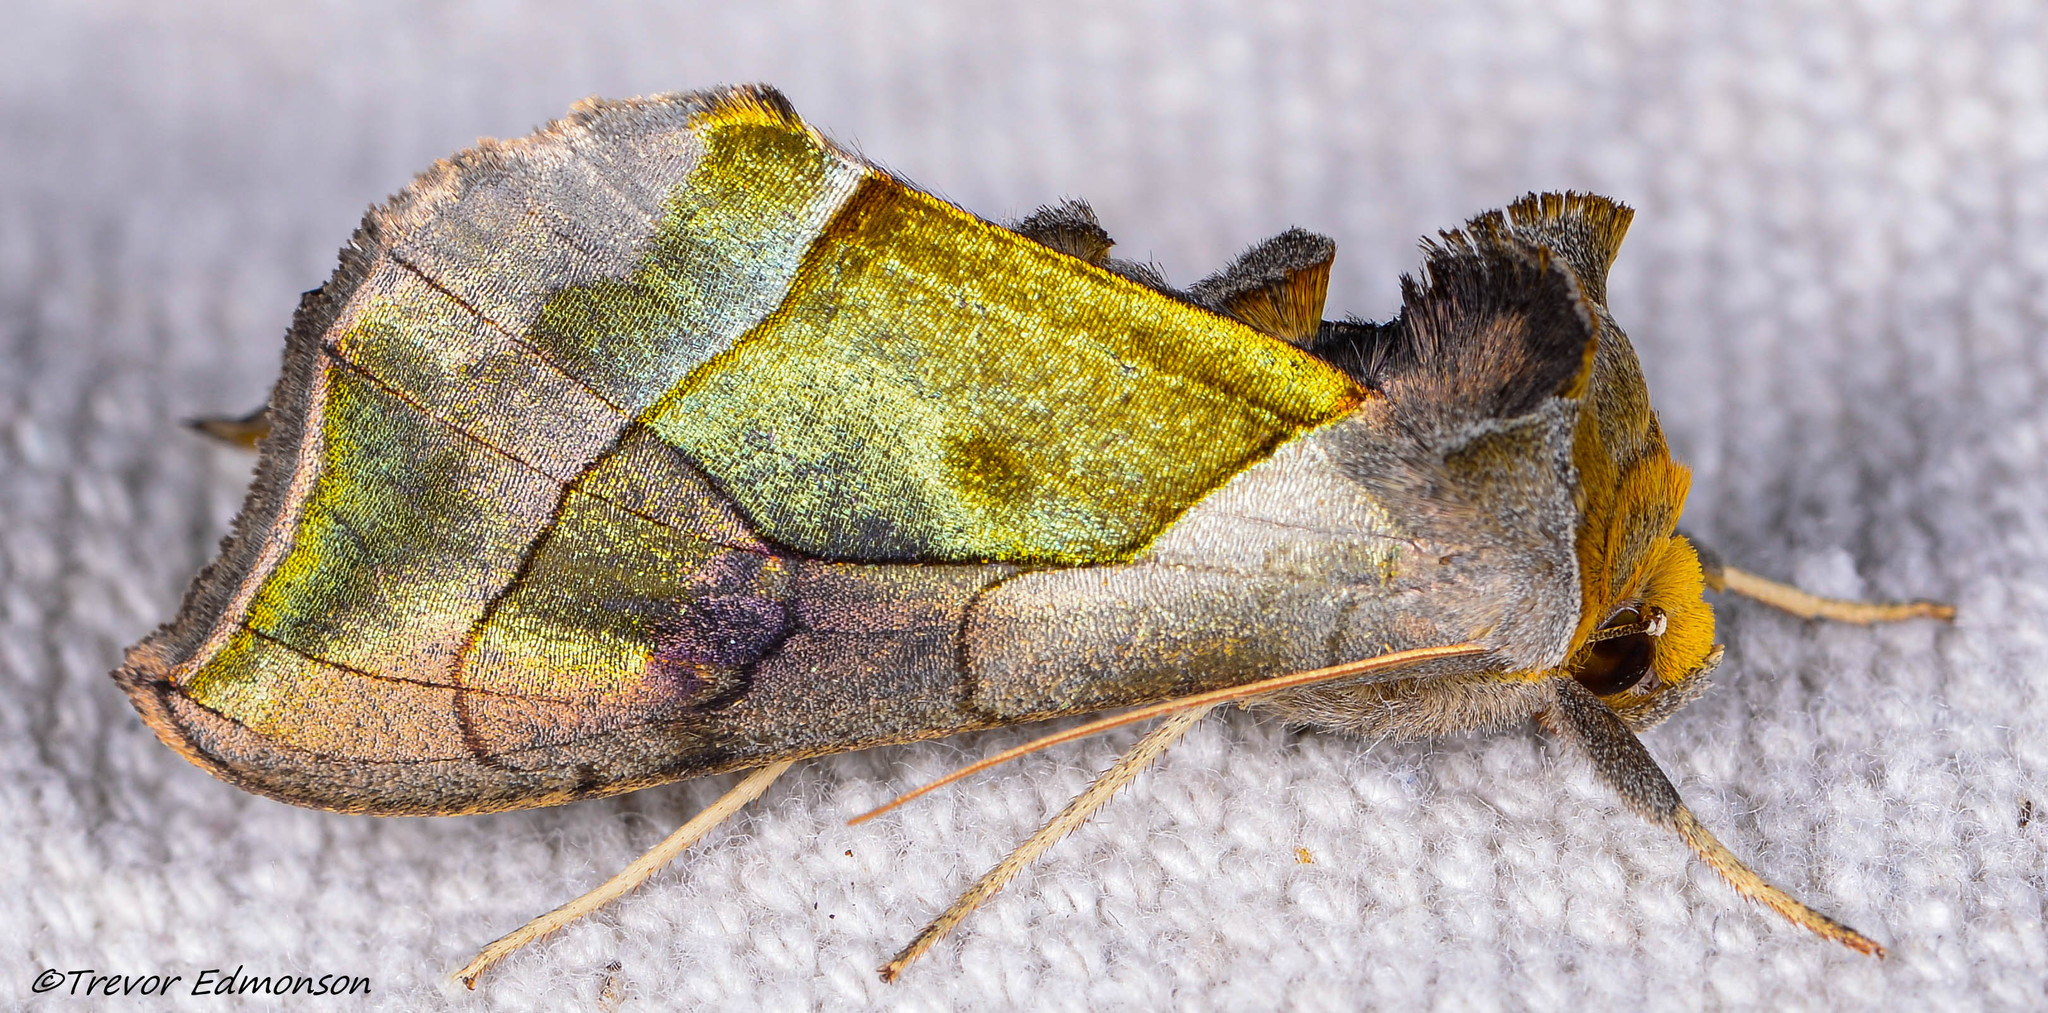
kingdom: Animalia
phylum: Arthropoda
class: Insecta
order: Lepidoptera
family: Noctuidae
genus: Diachrysia
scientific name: Diachrysia balluca
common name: Green-patched looper moth
